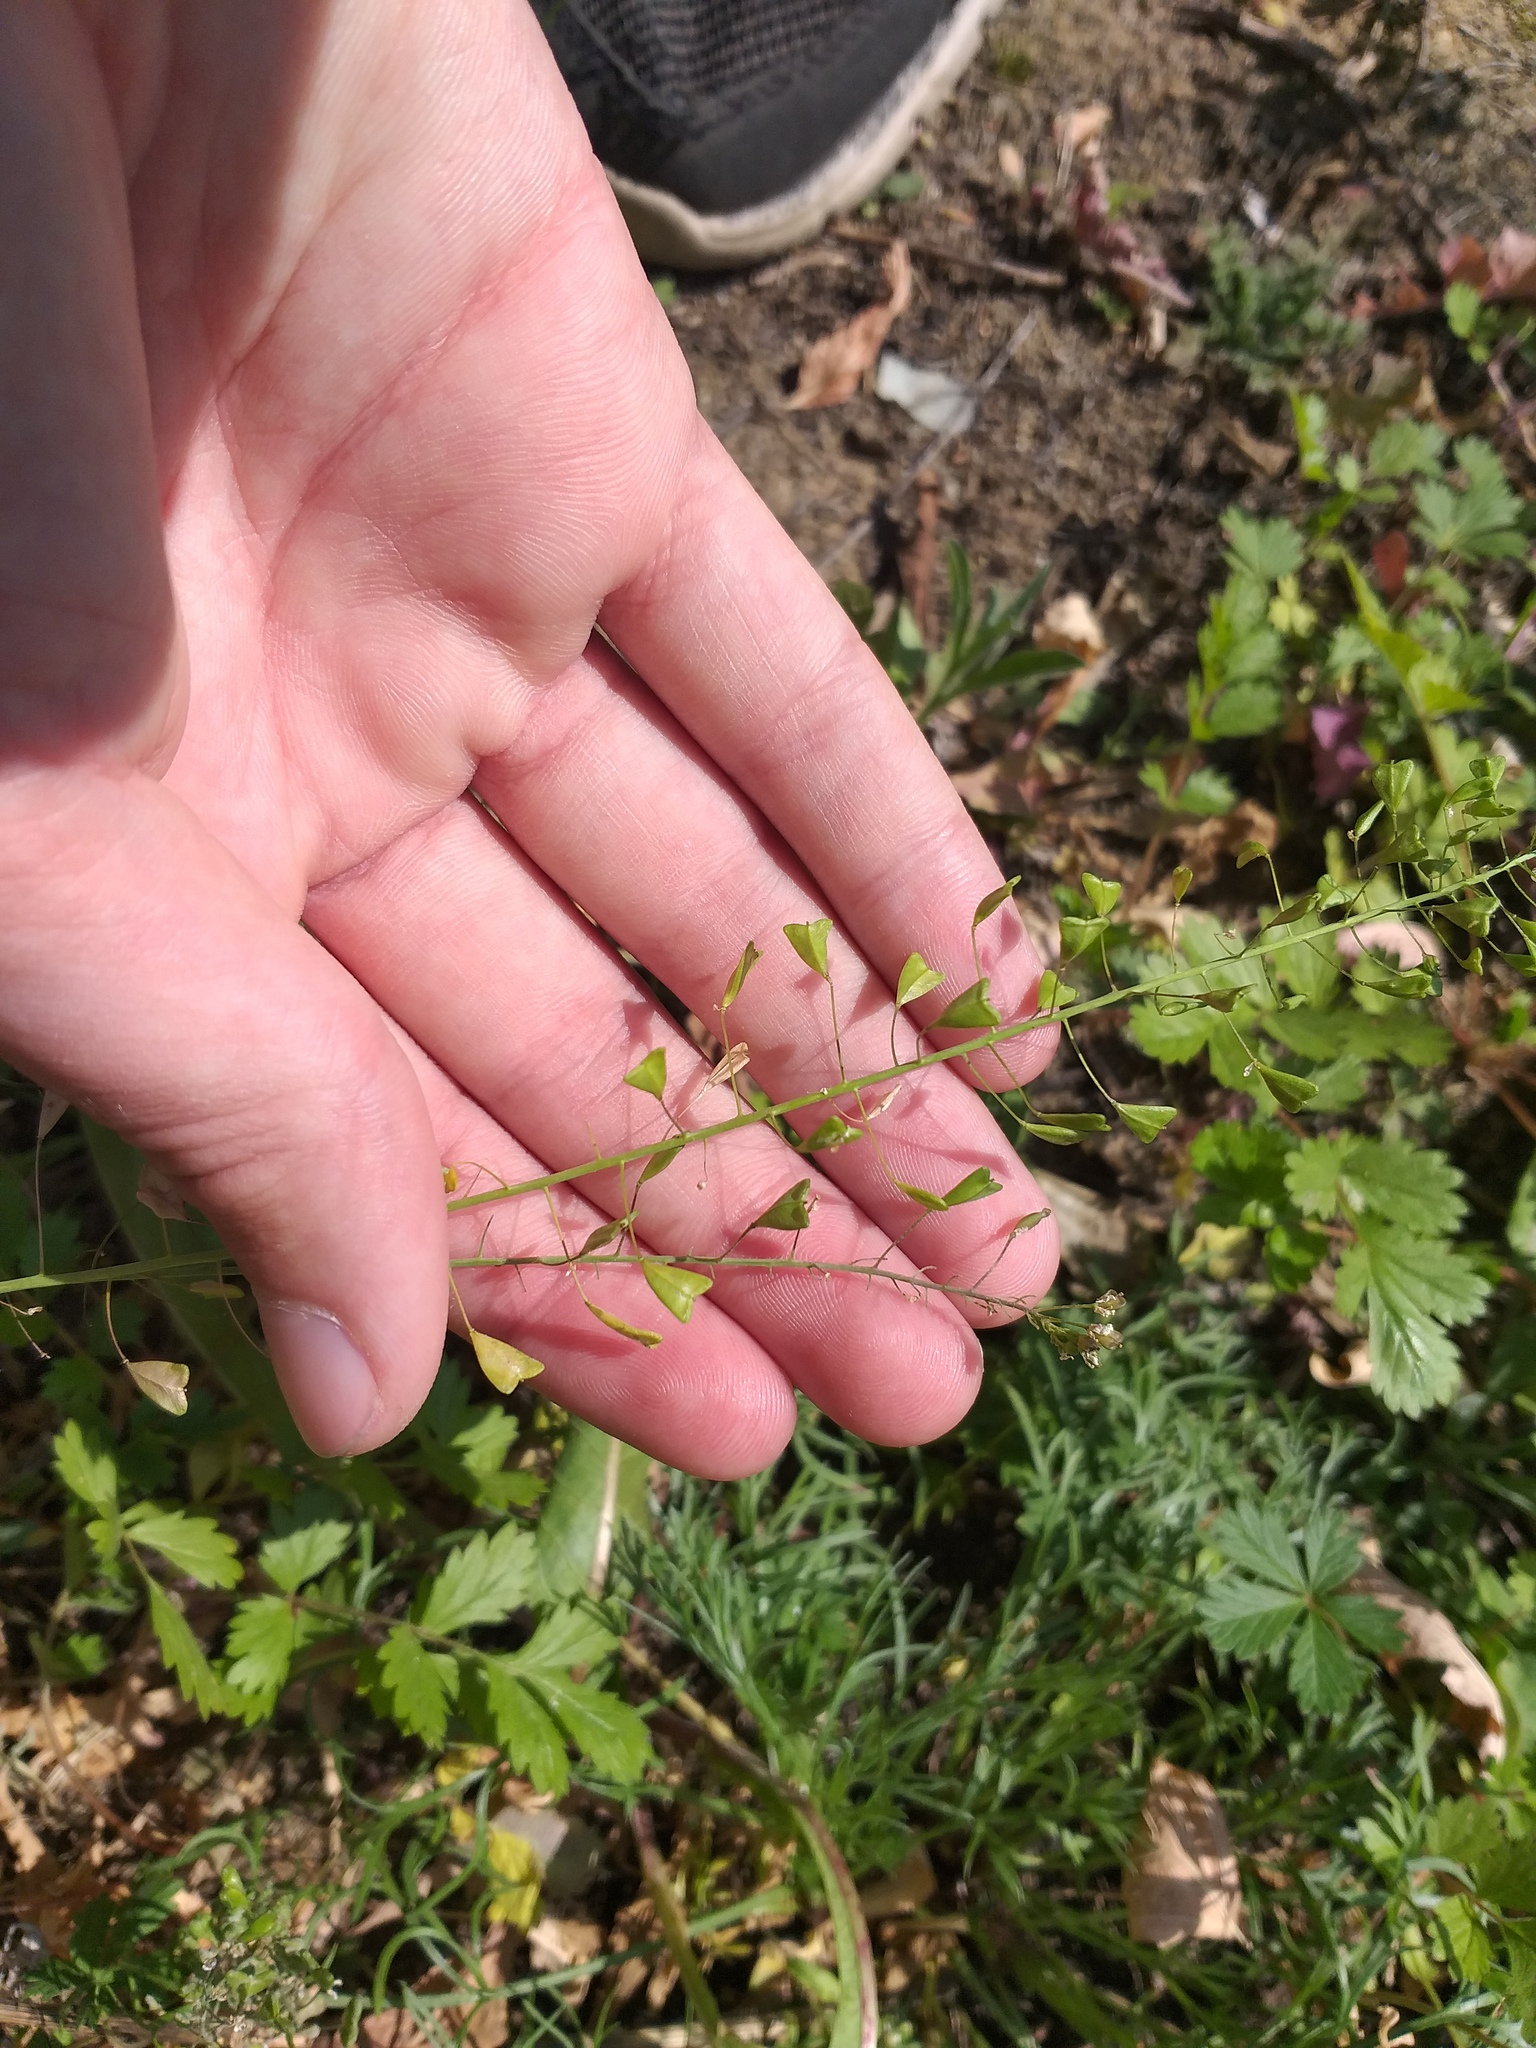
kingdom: Plantae
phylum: Tracheophyta
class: Magnoliopsida
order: Brassicales
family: Brassicaceae
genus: Capsella
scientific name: Capsella bursa-pastoris
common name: Shepherd's purse
